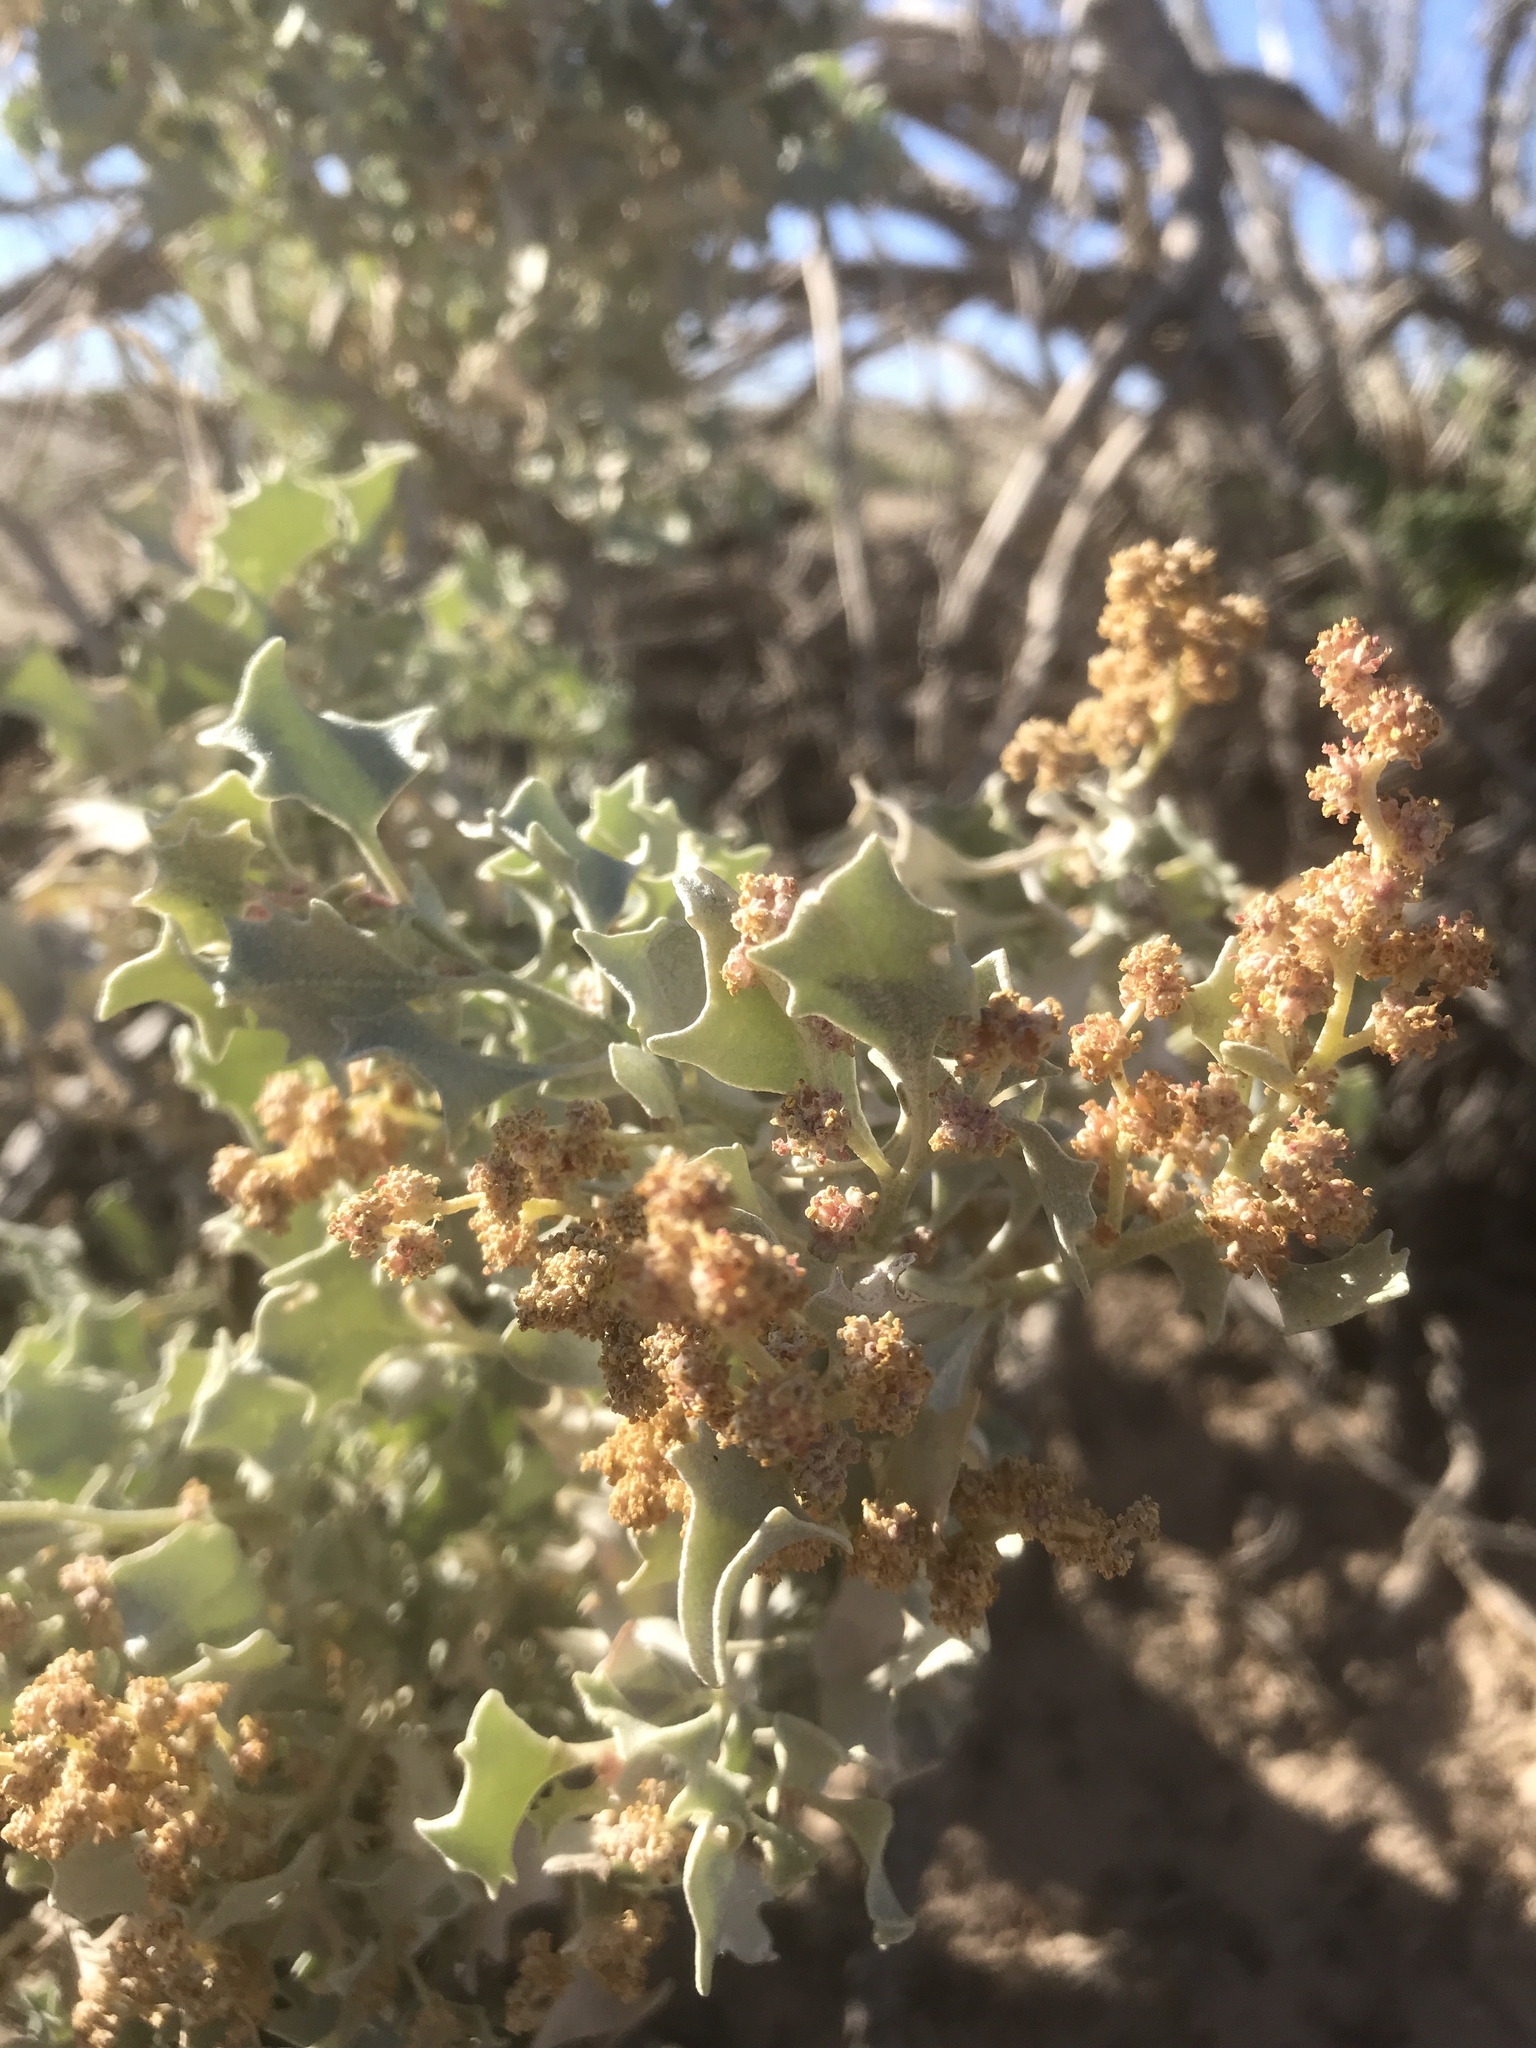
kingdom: Plantae
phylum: Tracheophyta
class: Magnoliopsida
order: Caryophyllales
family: Amaranthaceae
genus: Atriplex
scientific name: Atriplex hymenelytra
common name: Desert-holly
